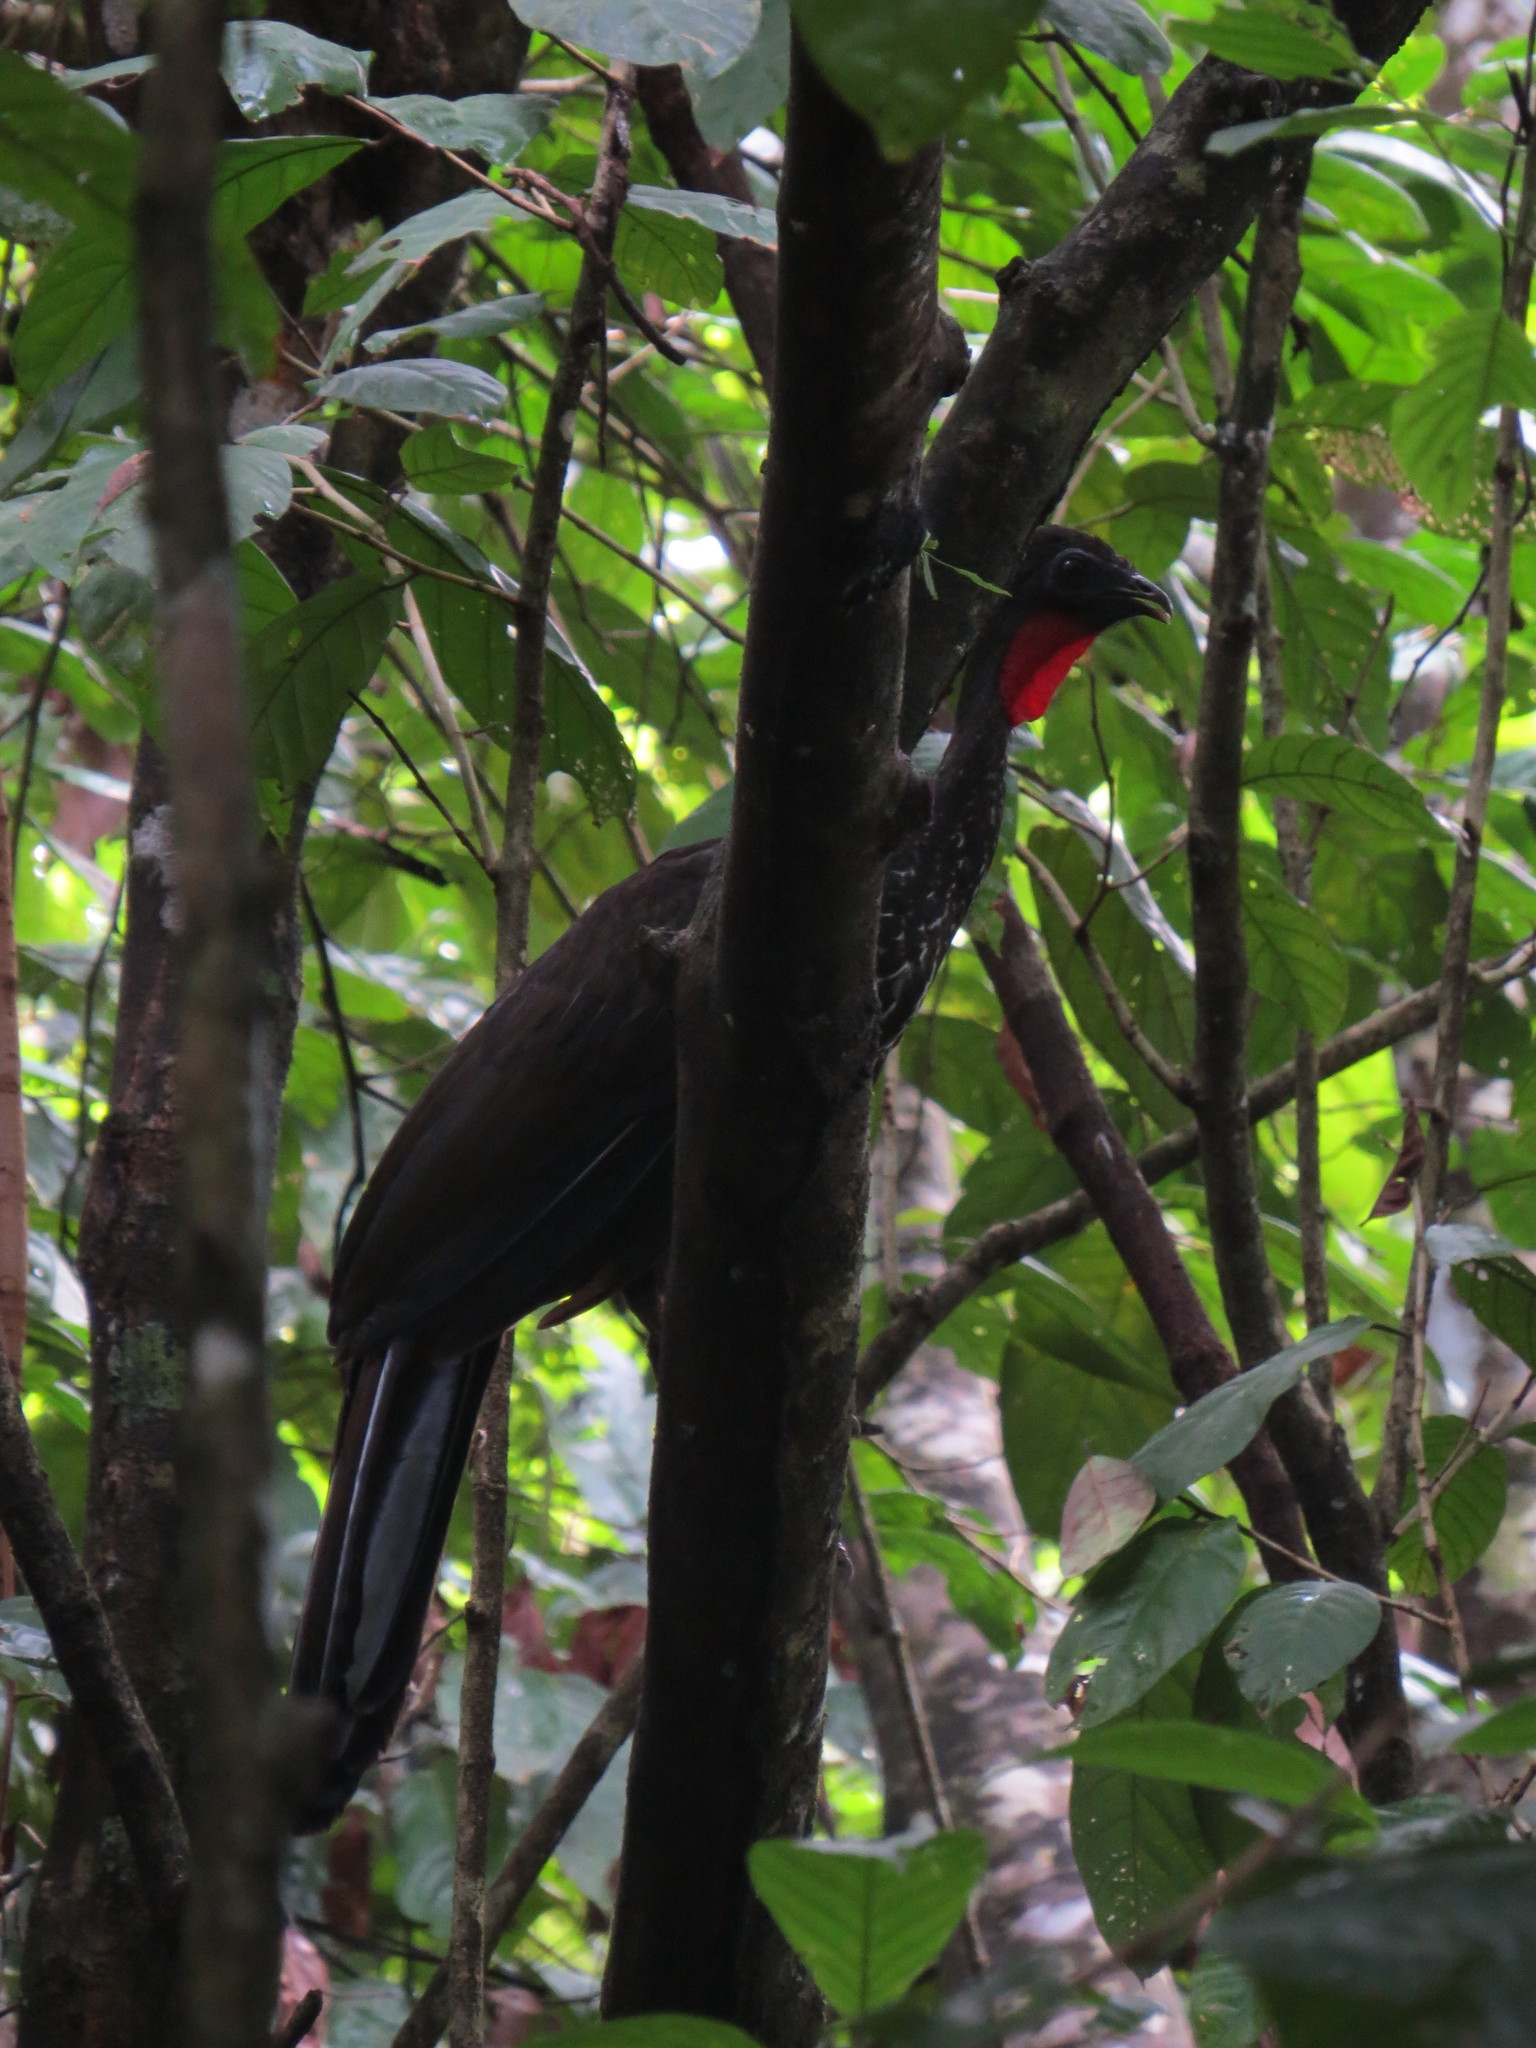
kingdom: Animalia
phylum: Chordata
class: Aves
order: Galliformes
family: Cracidae
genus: Penelope
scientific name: Penelope purpurascens
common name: Crested guan
